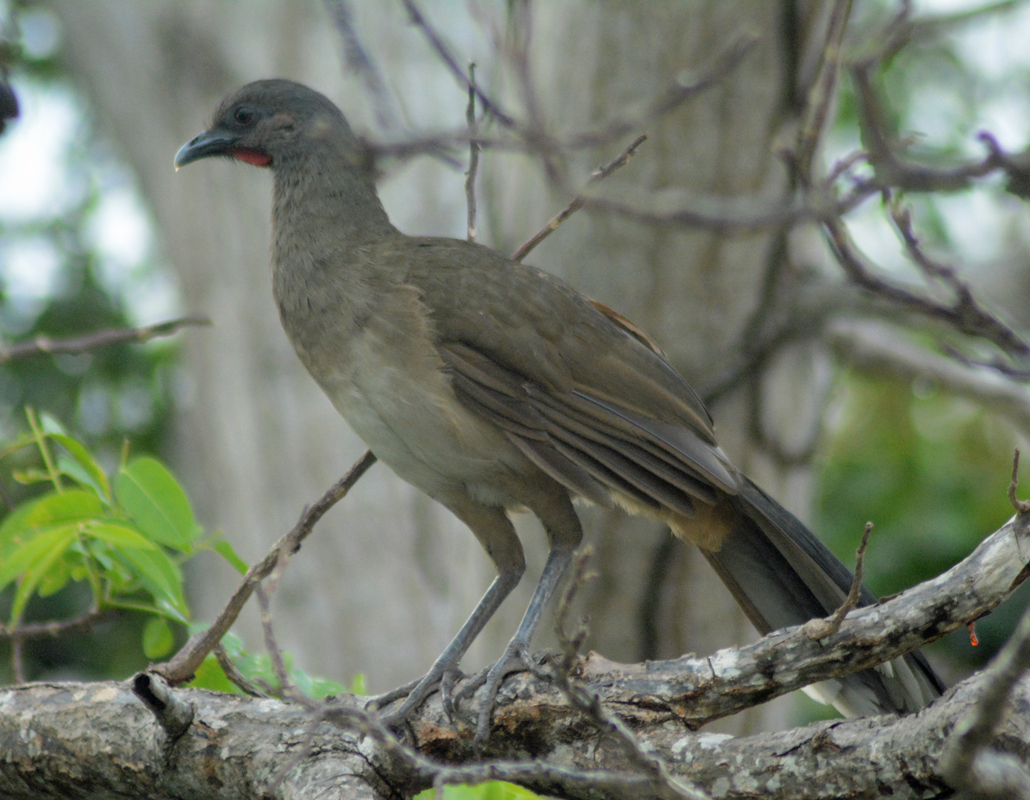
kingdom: Animalia
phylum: Chordata
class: Aves
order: Galliformes
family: Cracidae
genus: Ortalis
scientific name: Ortalis vetula
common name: Plain chachalaca
